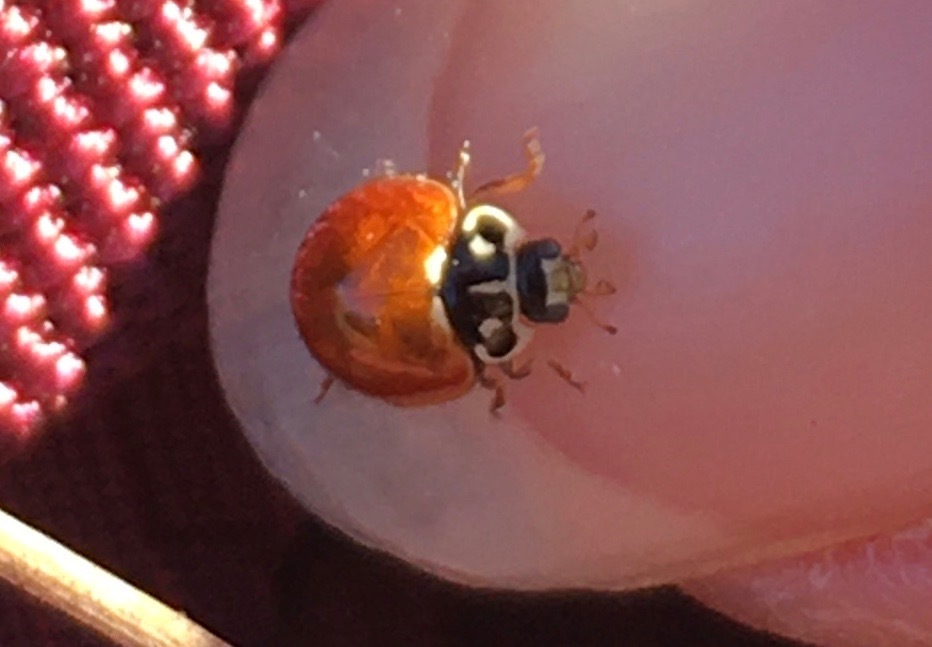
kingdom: Animalia
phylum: Arthropoda
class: Insecta
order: Coleoptera
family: Coccinellidae
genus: Cycloneda
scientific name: Cycloneda sanguinea
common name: Ladybird beetle
